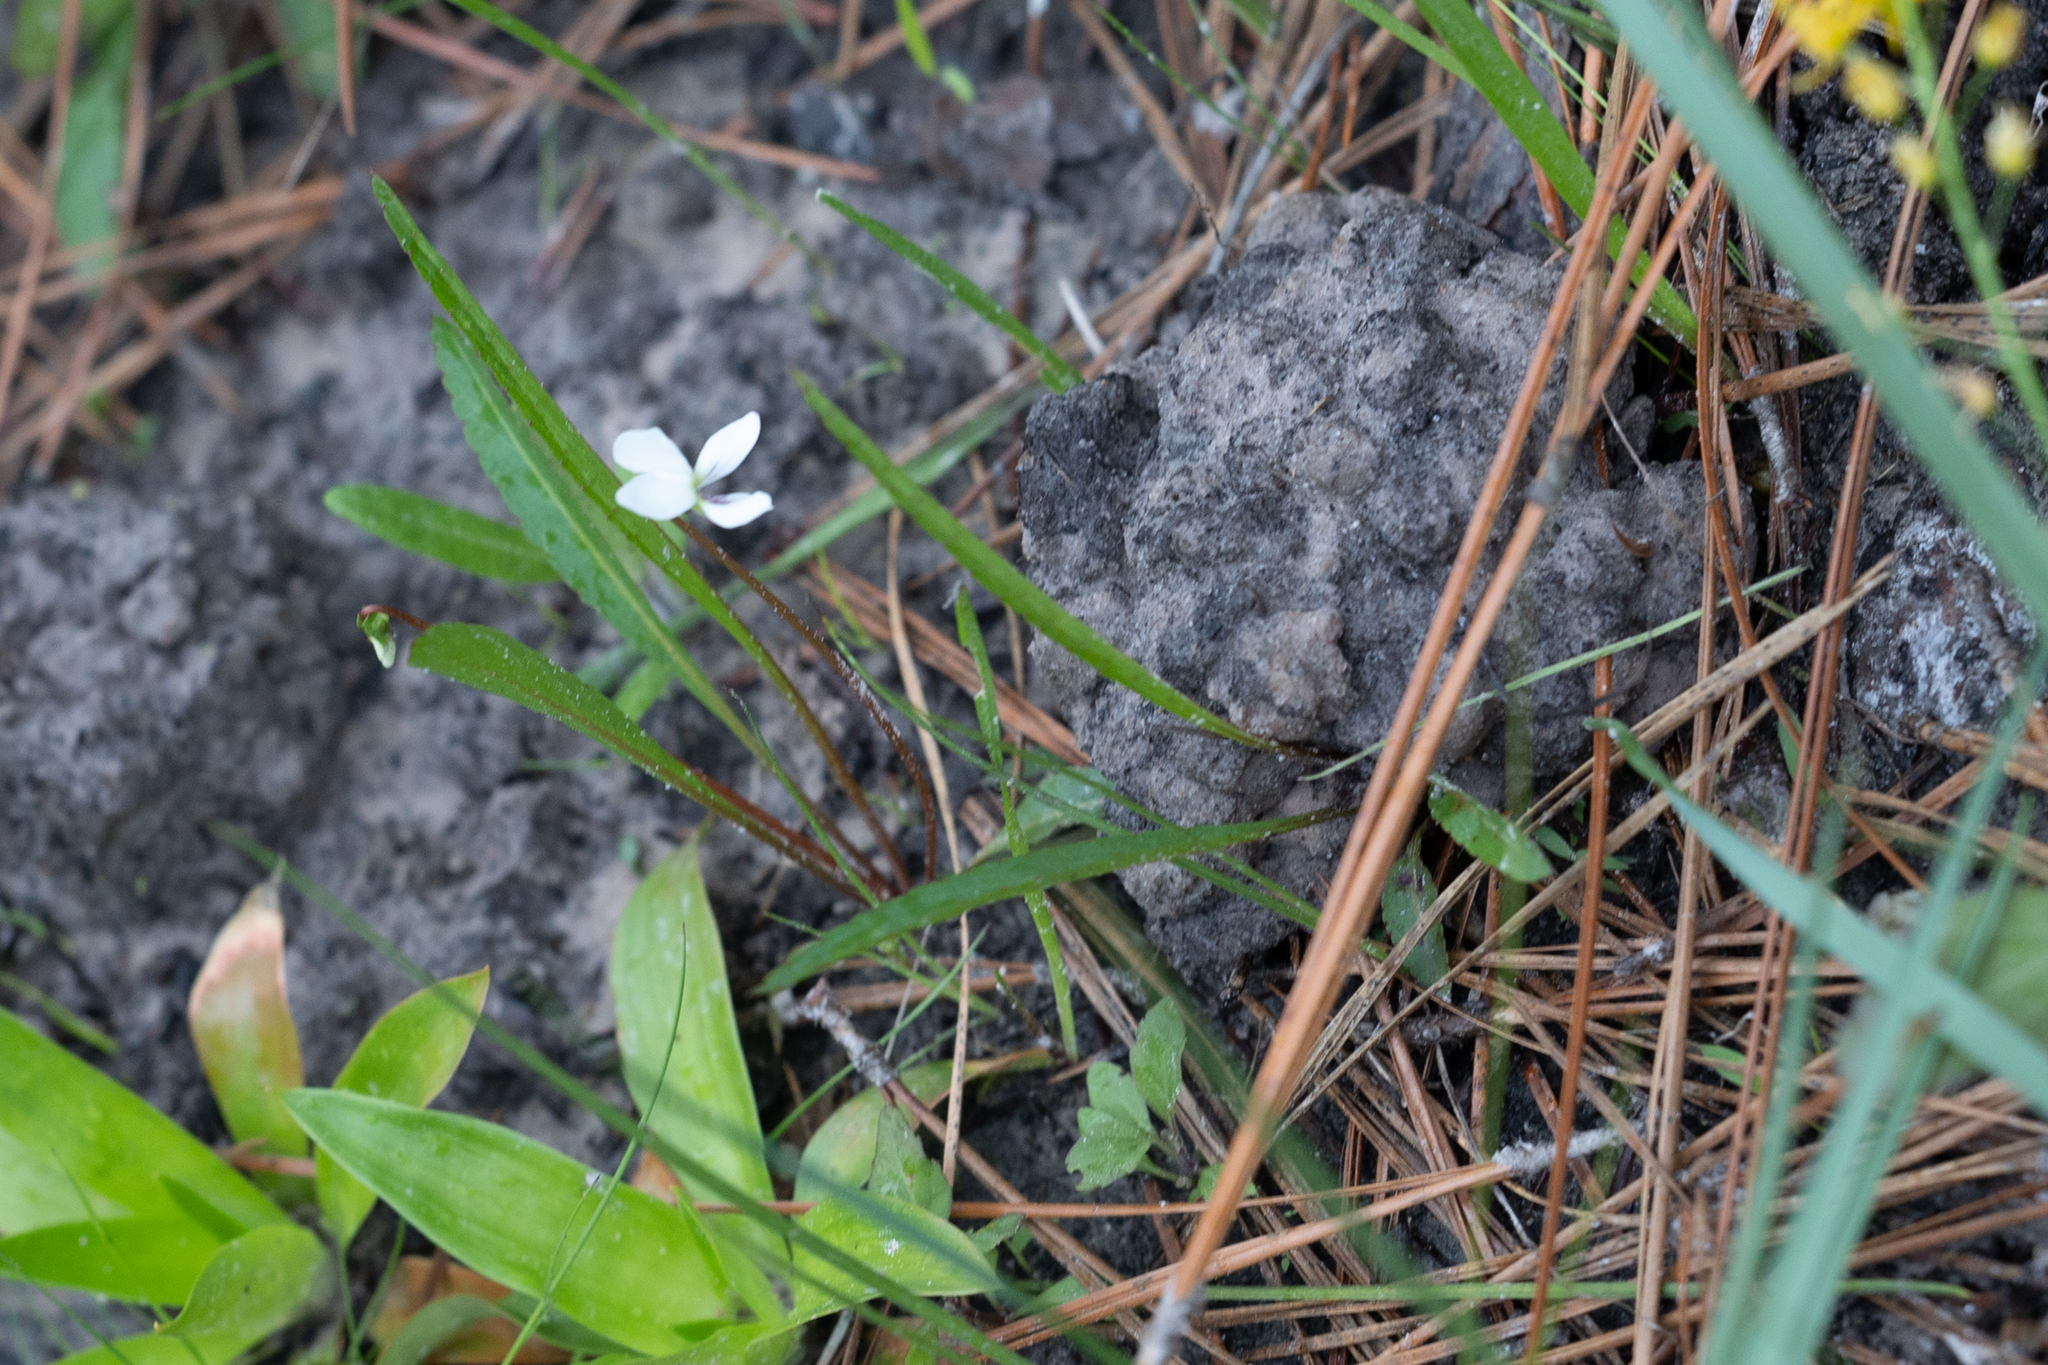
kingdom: Plantae
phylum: Tracheophyta
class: Magnoliopsida
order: Malpighiales
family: Violaceae
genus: Viola
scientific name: Viola vittata
